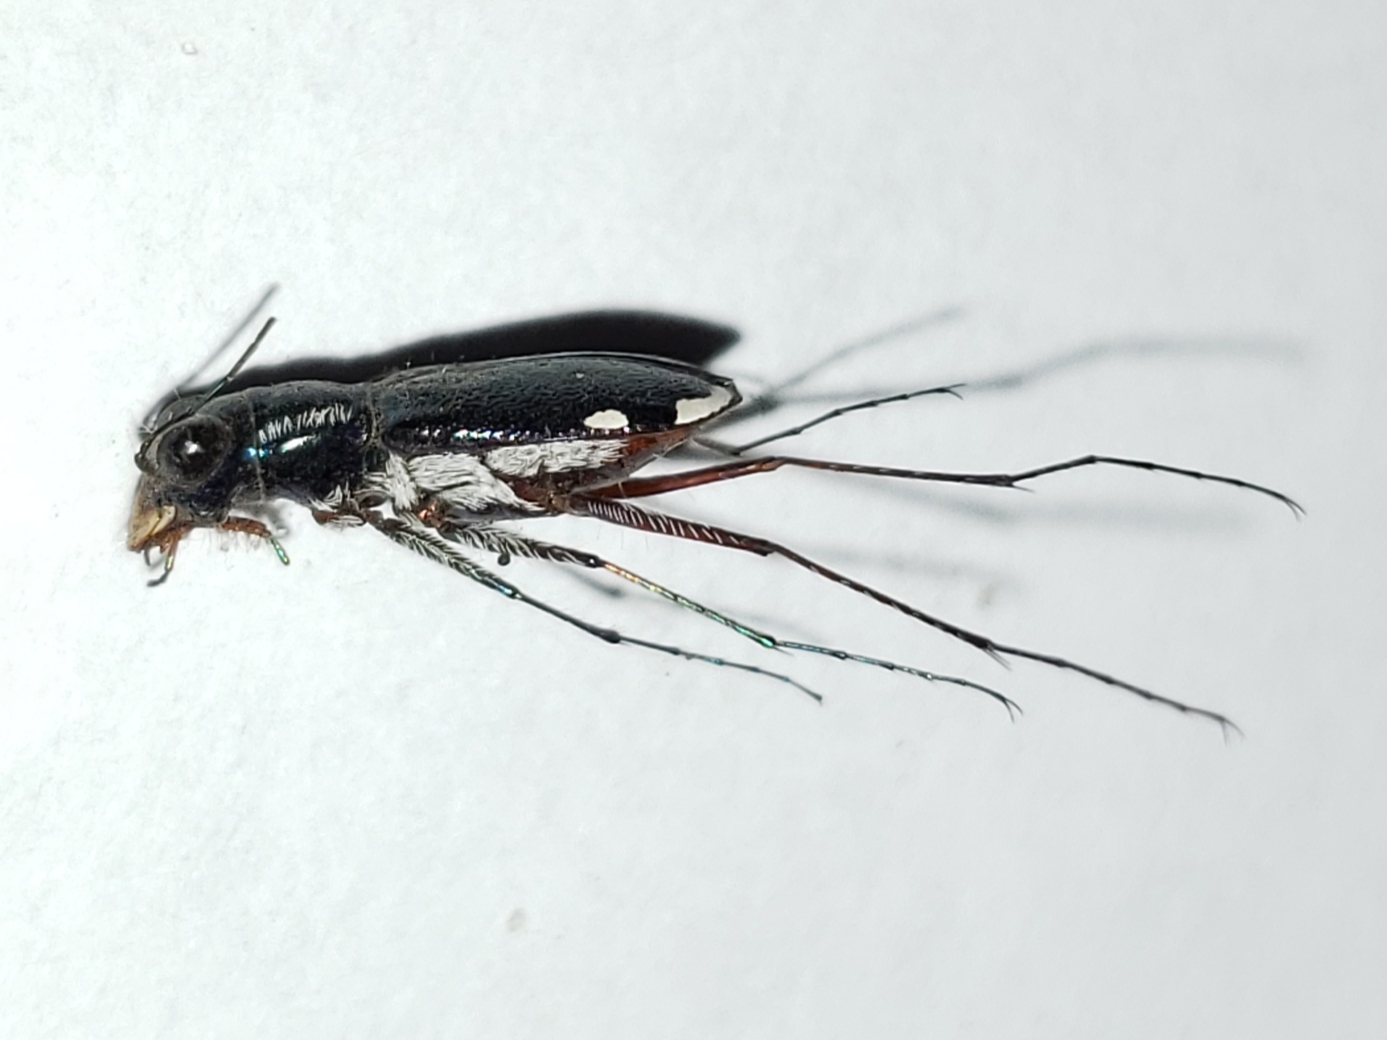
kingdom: Animalia
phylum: Arthropoda
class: Insecta
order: Coleoptera
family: Carabidae
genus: Cicindela
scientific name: Cicindela scabrosa
